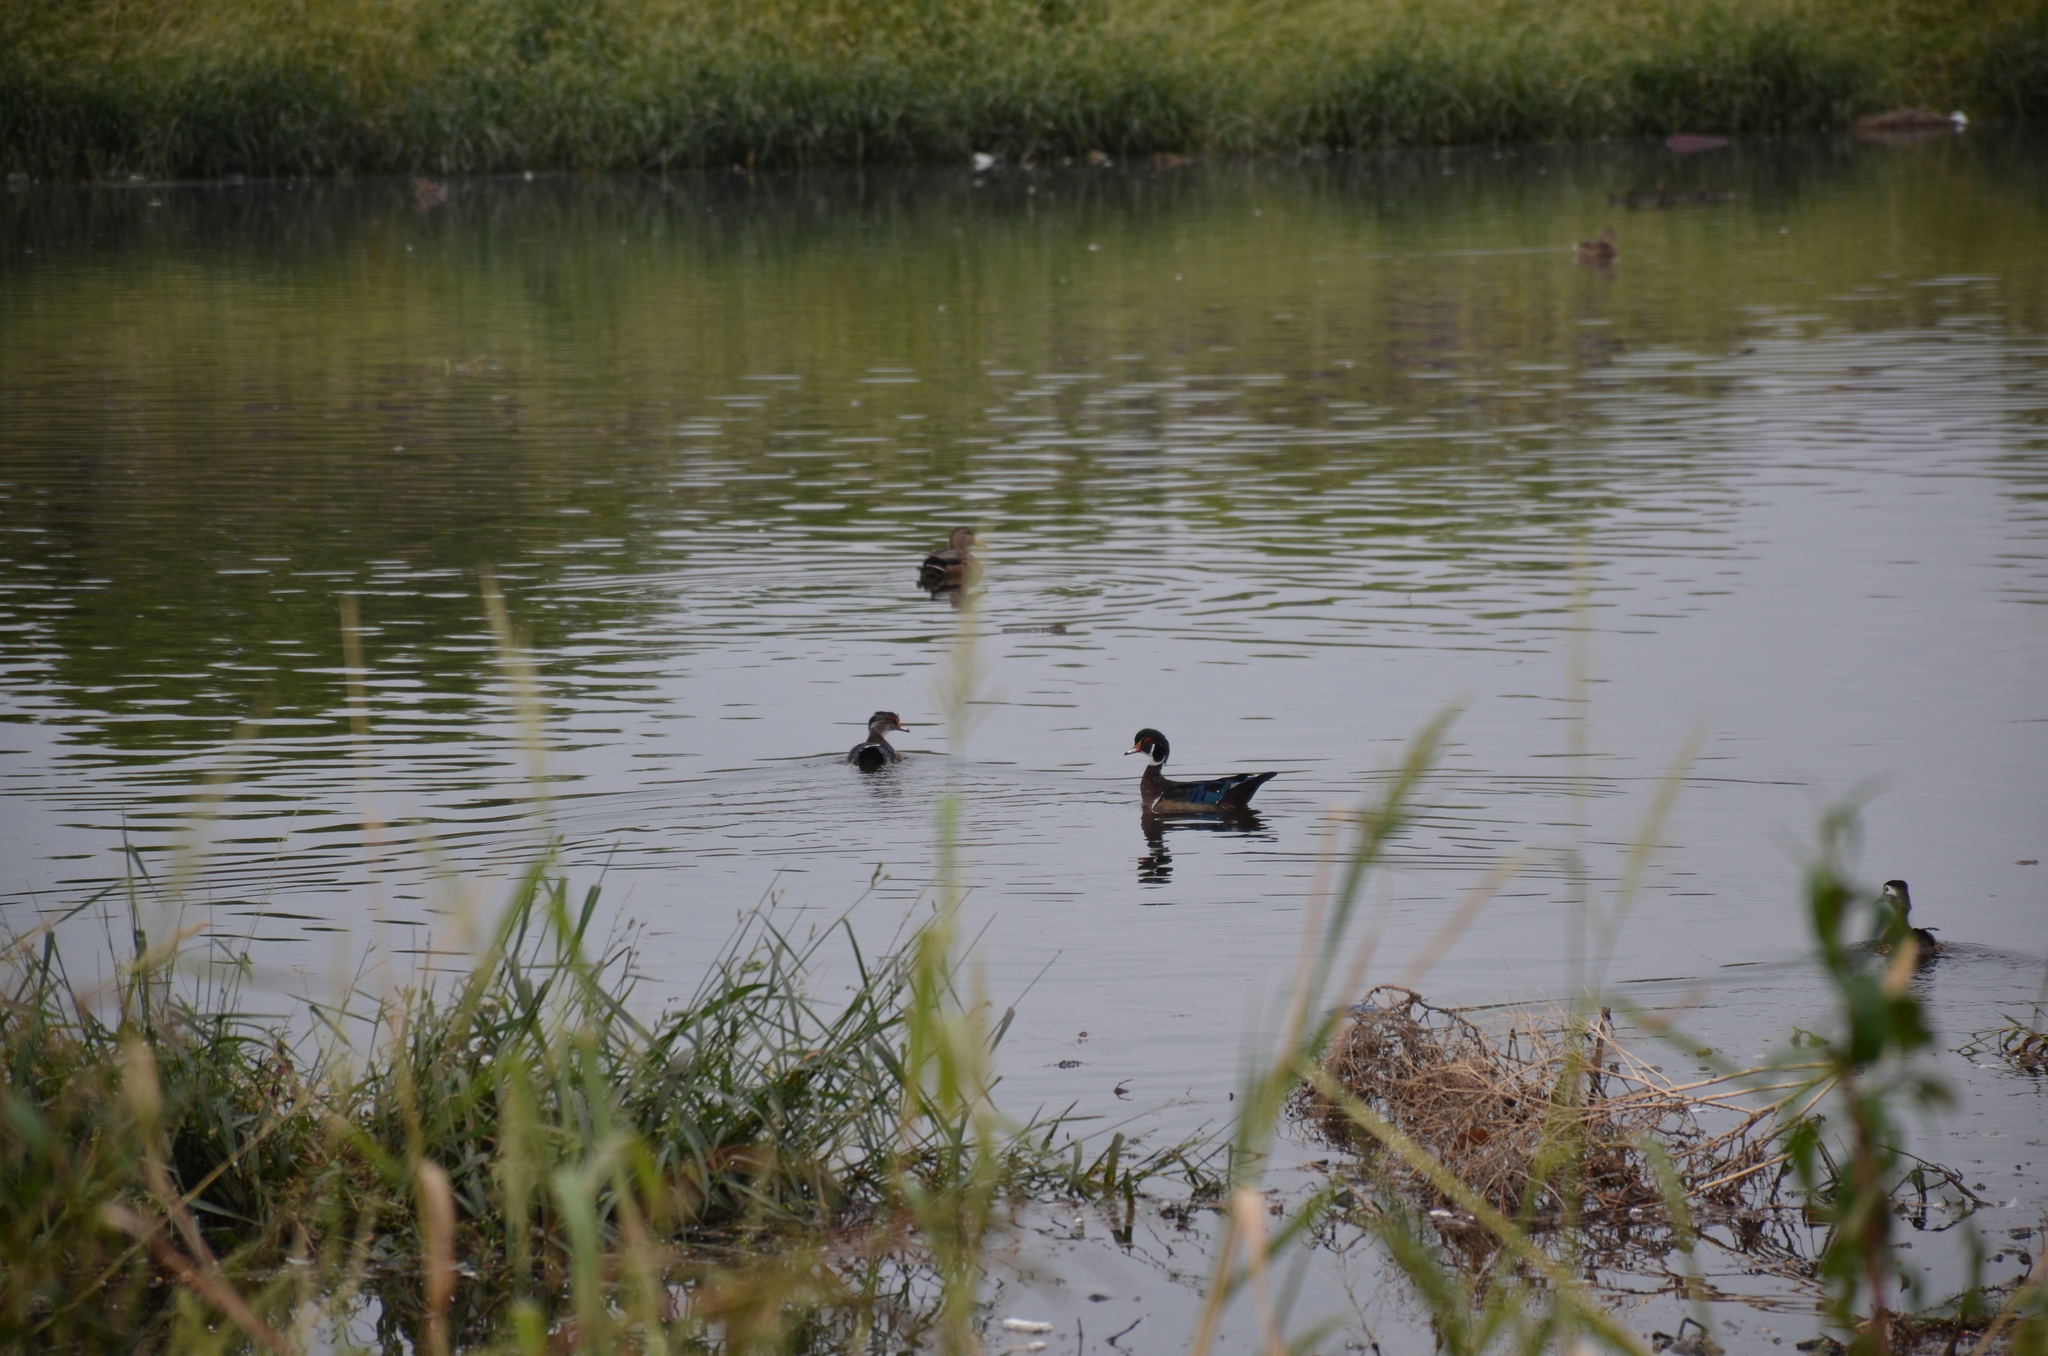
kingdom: Animalia
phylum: Chordata
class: Aves
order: Anseriformes
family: Anatidae
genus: Aix
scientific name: Aix sponsa
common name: Wood duck
